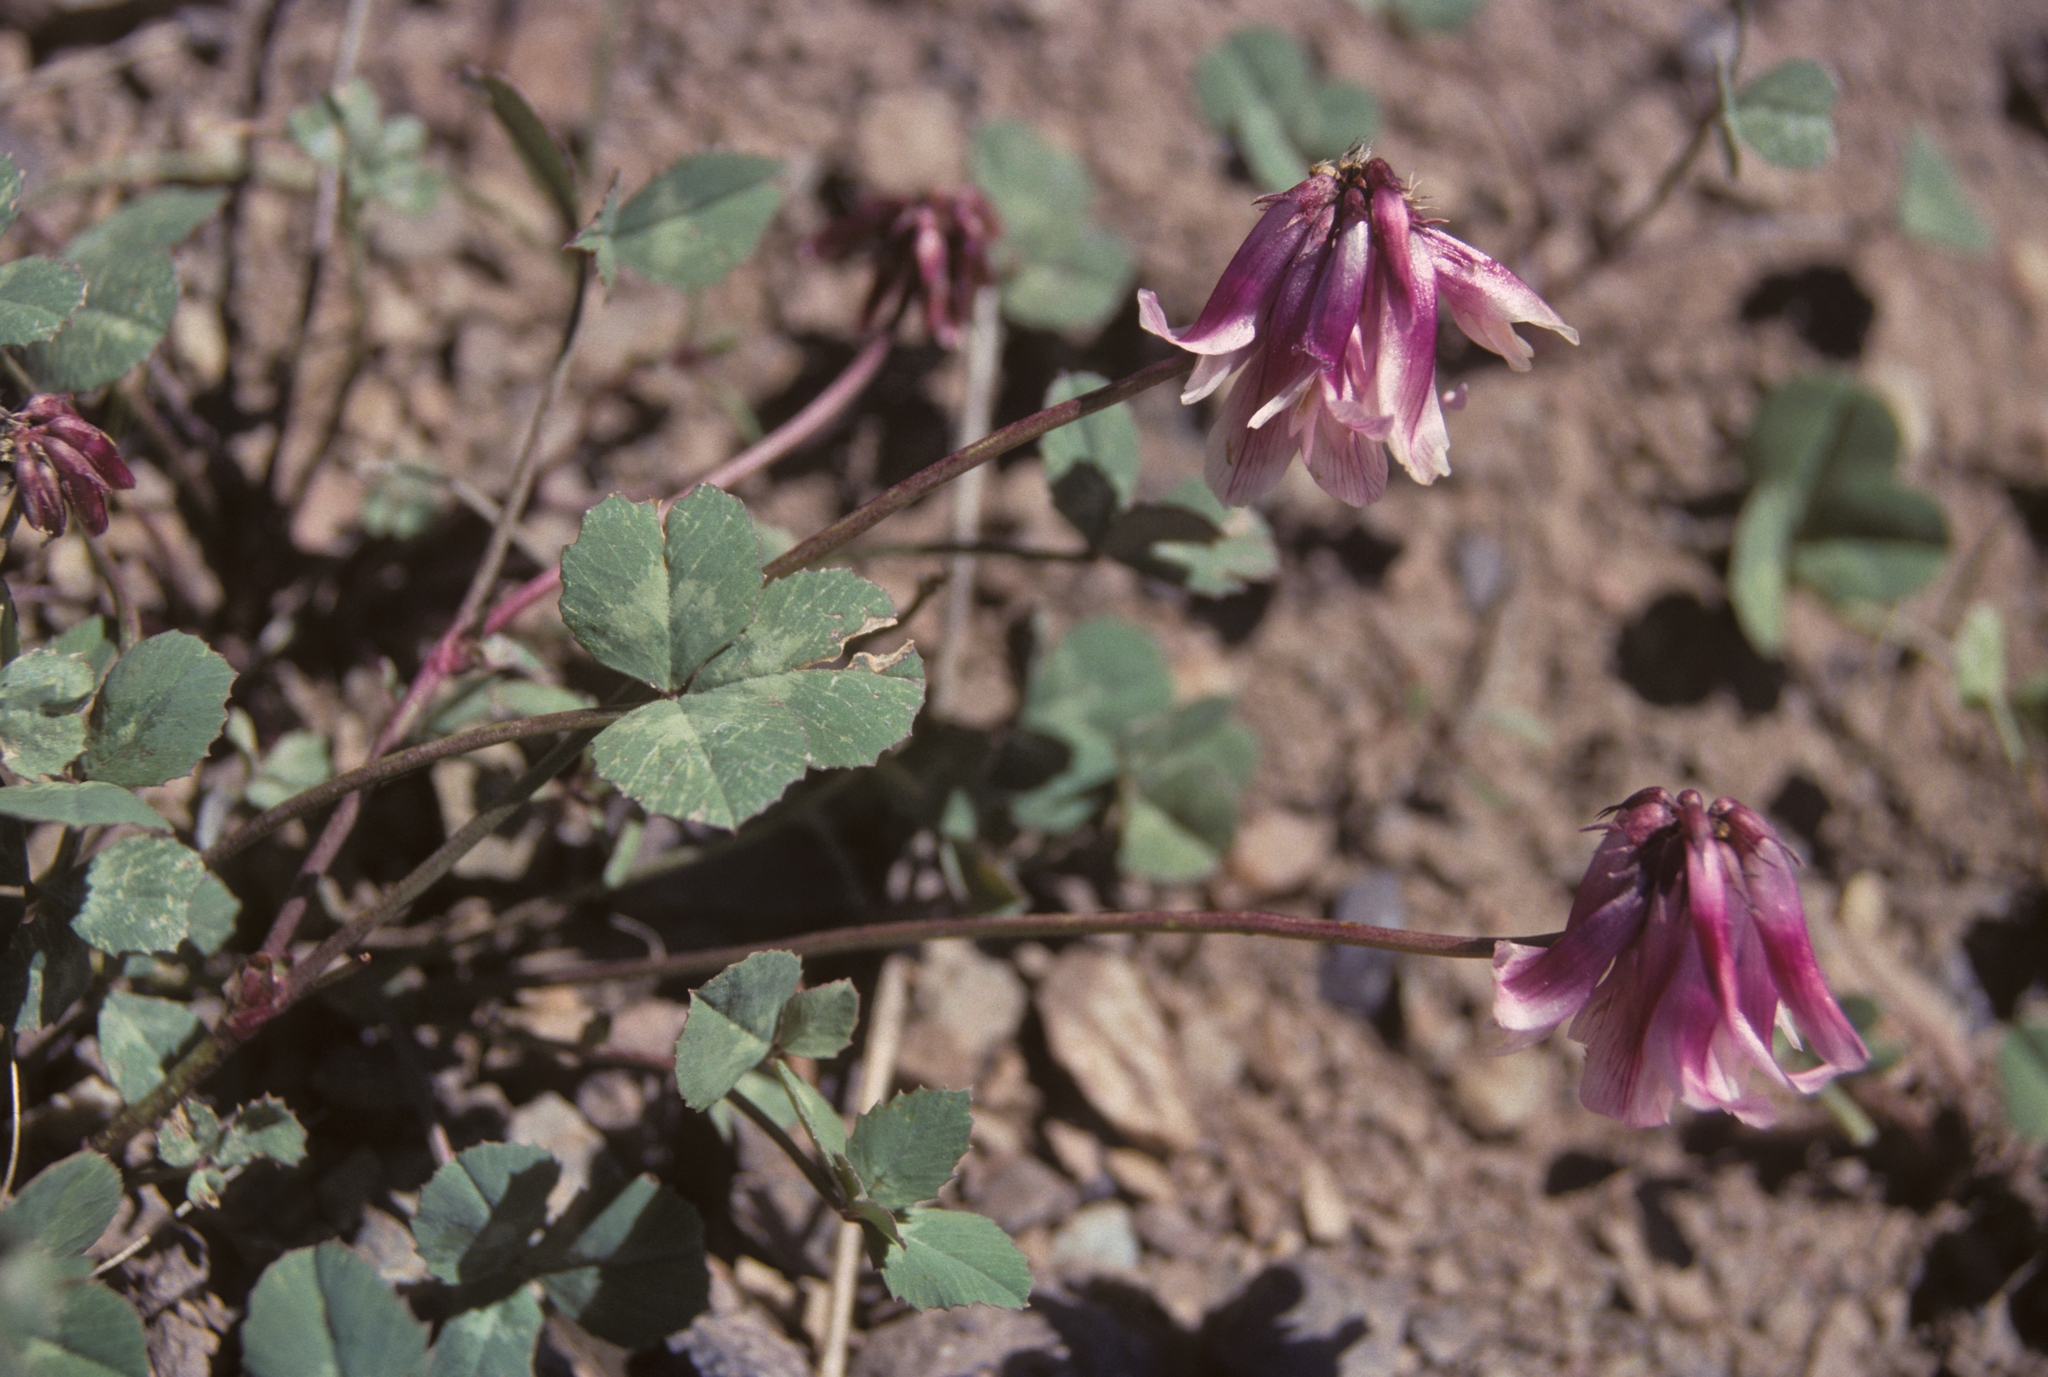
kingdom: Plantae
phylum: Tracheophyta
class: Magnoliopsida
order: Fabales
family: Fabaceae
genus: Trifolium
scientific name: Trifolium rollinsii
